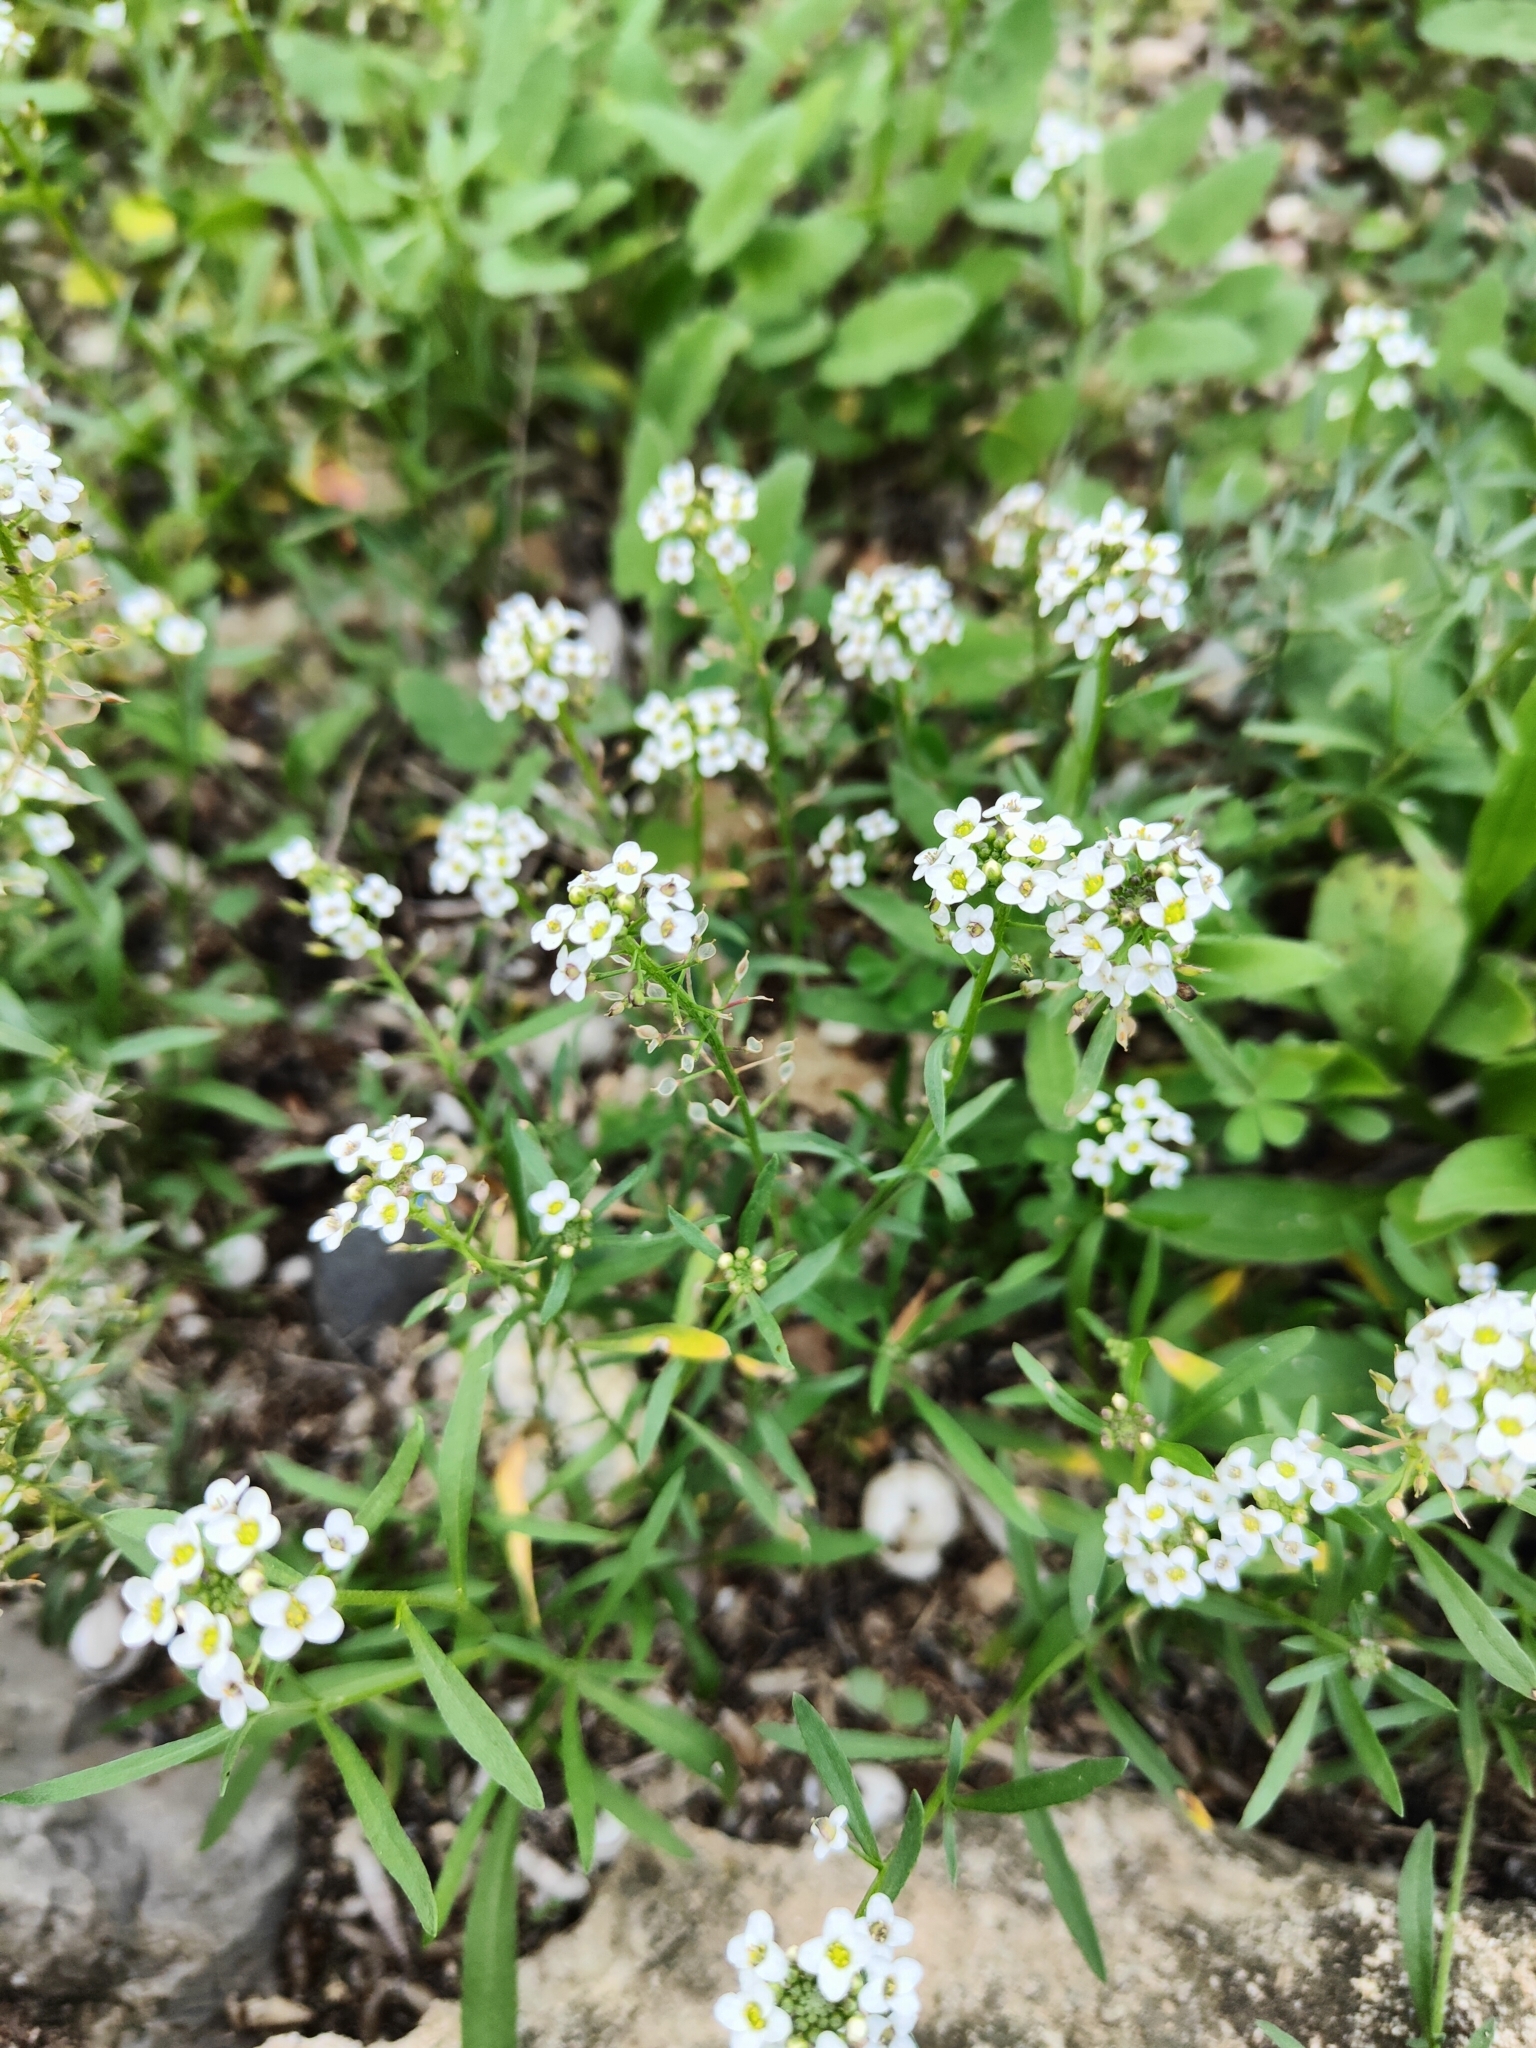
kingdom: Plantae
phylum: Tracheophyta
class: Magnoliopsida
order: Brassicales
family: Brassicaceae
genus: Lobularia
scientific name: Lobularia maritima
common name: Sweet alison
